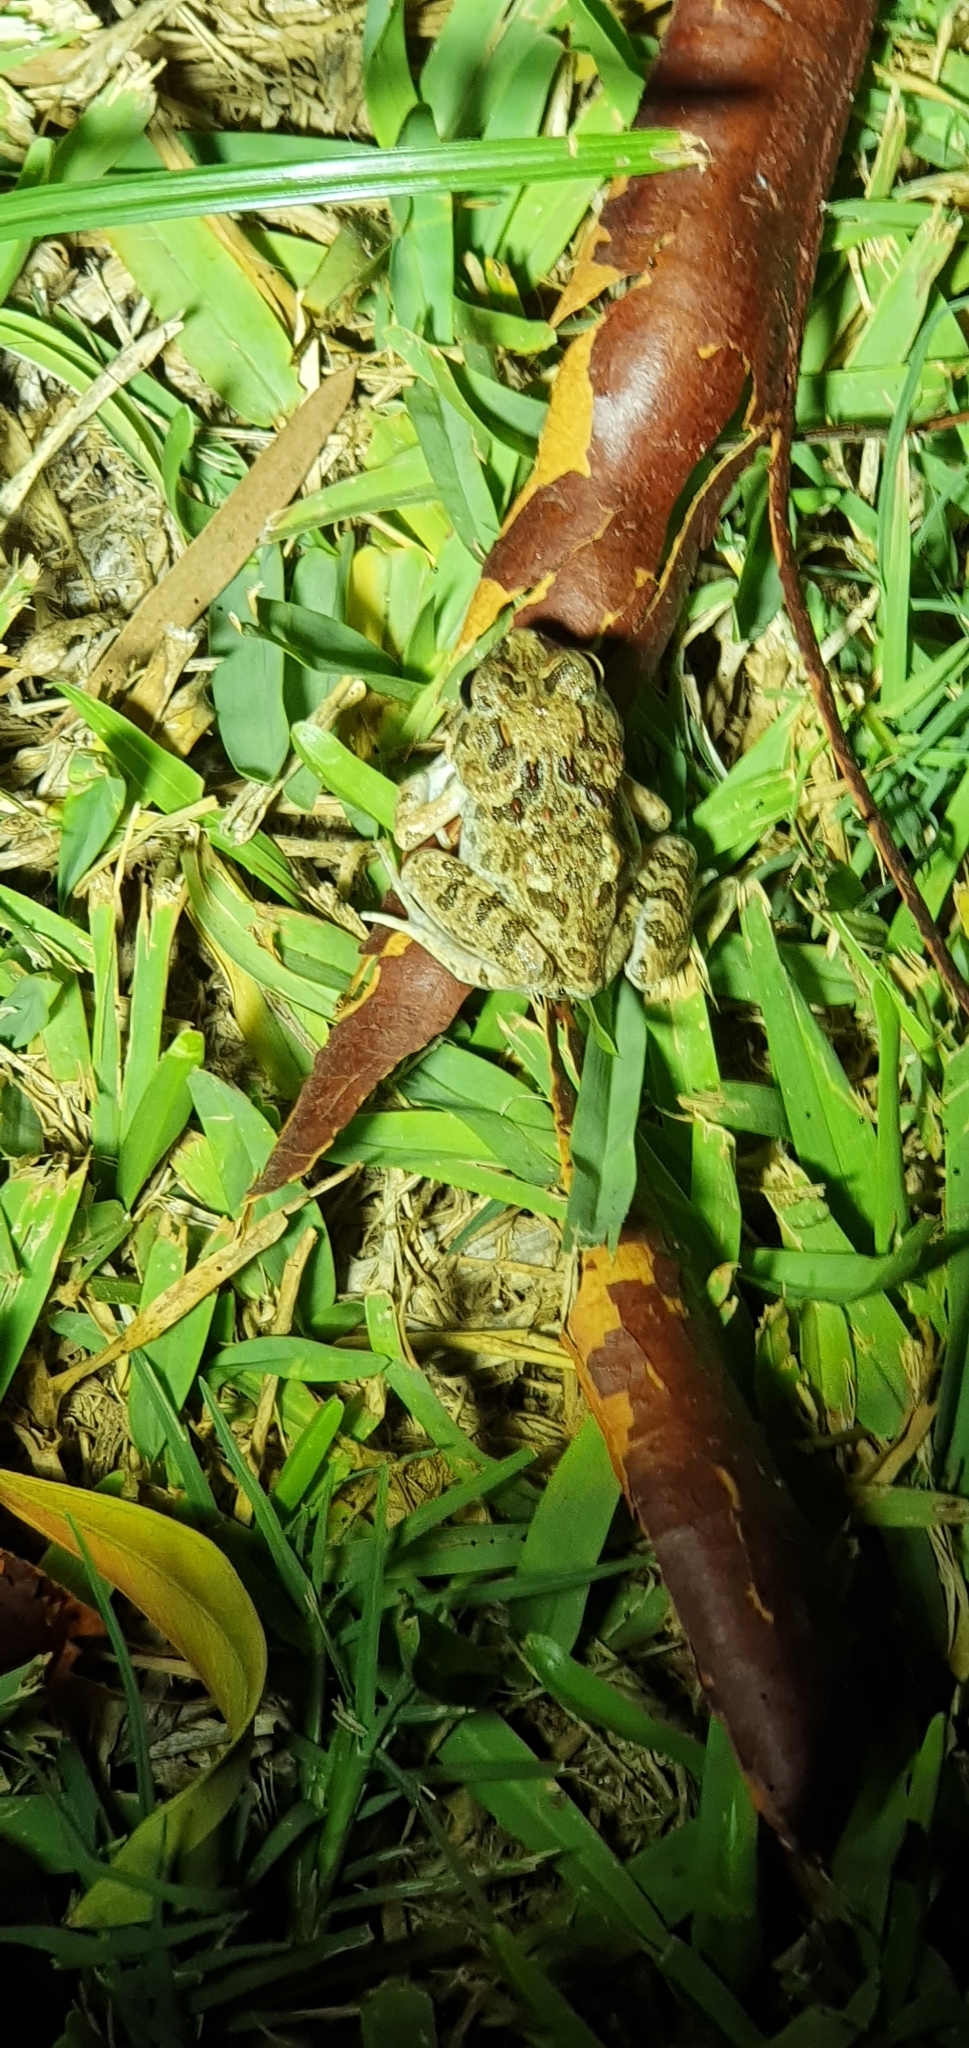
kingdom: Animalia
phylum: Chordata
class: Amphibia
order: Anura
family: Limnodynastidae
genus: Platyplectrum
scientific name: Platyplectrum ornatum
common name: Ornate burrowing frog
